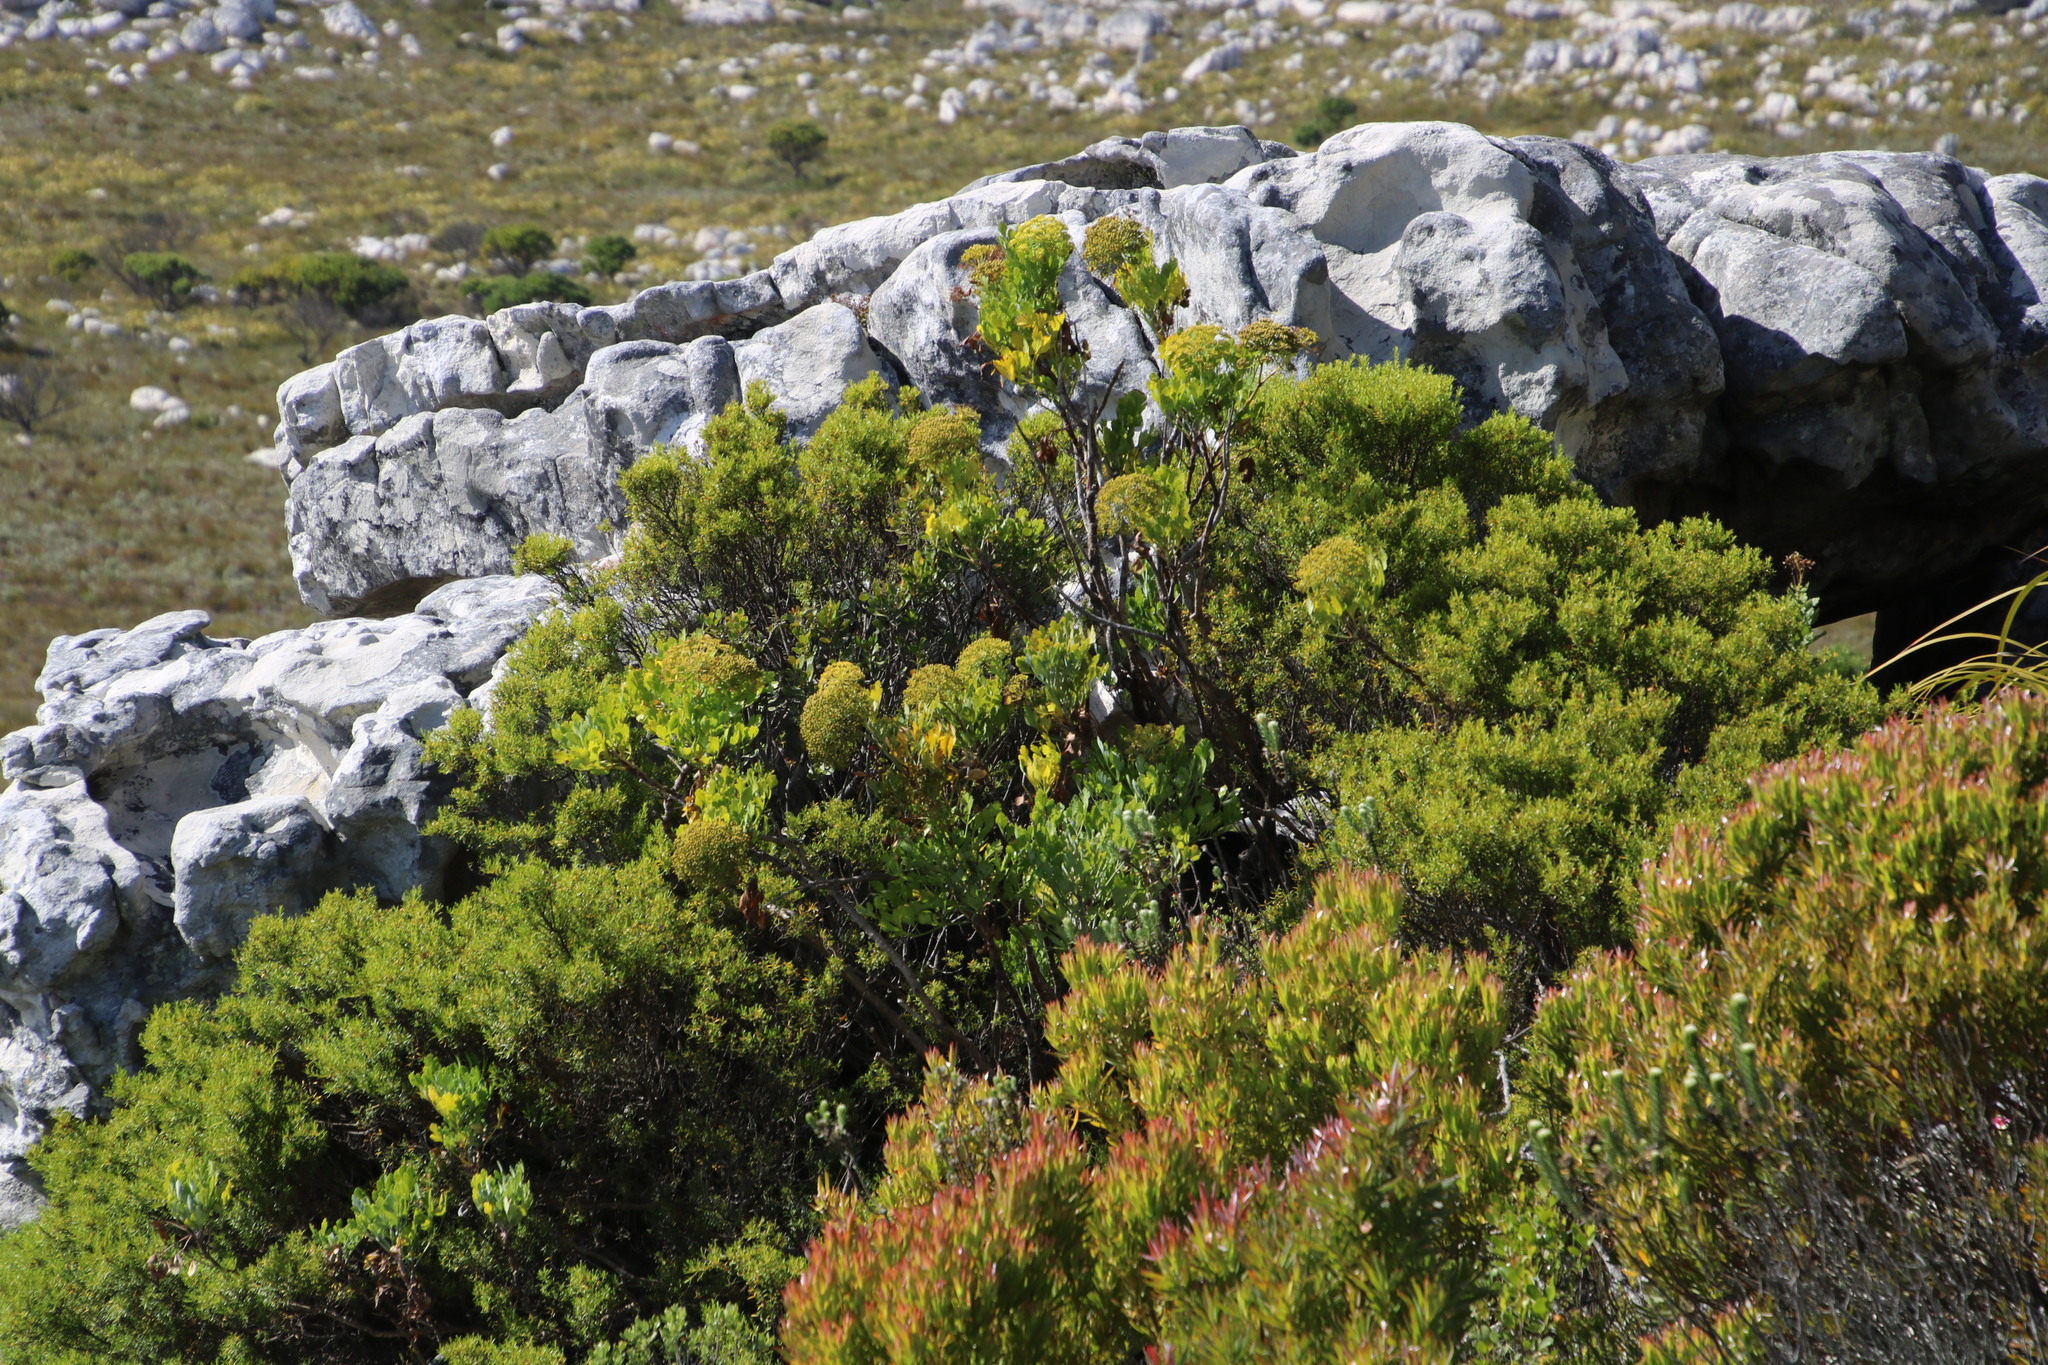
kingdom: Plantae
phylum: Tracheophyta
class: Magnoliopsida
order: Apiales
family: Apiaceae
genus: Notobubon
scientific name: Notobubon galbanum
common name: Blisterbush
